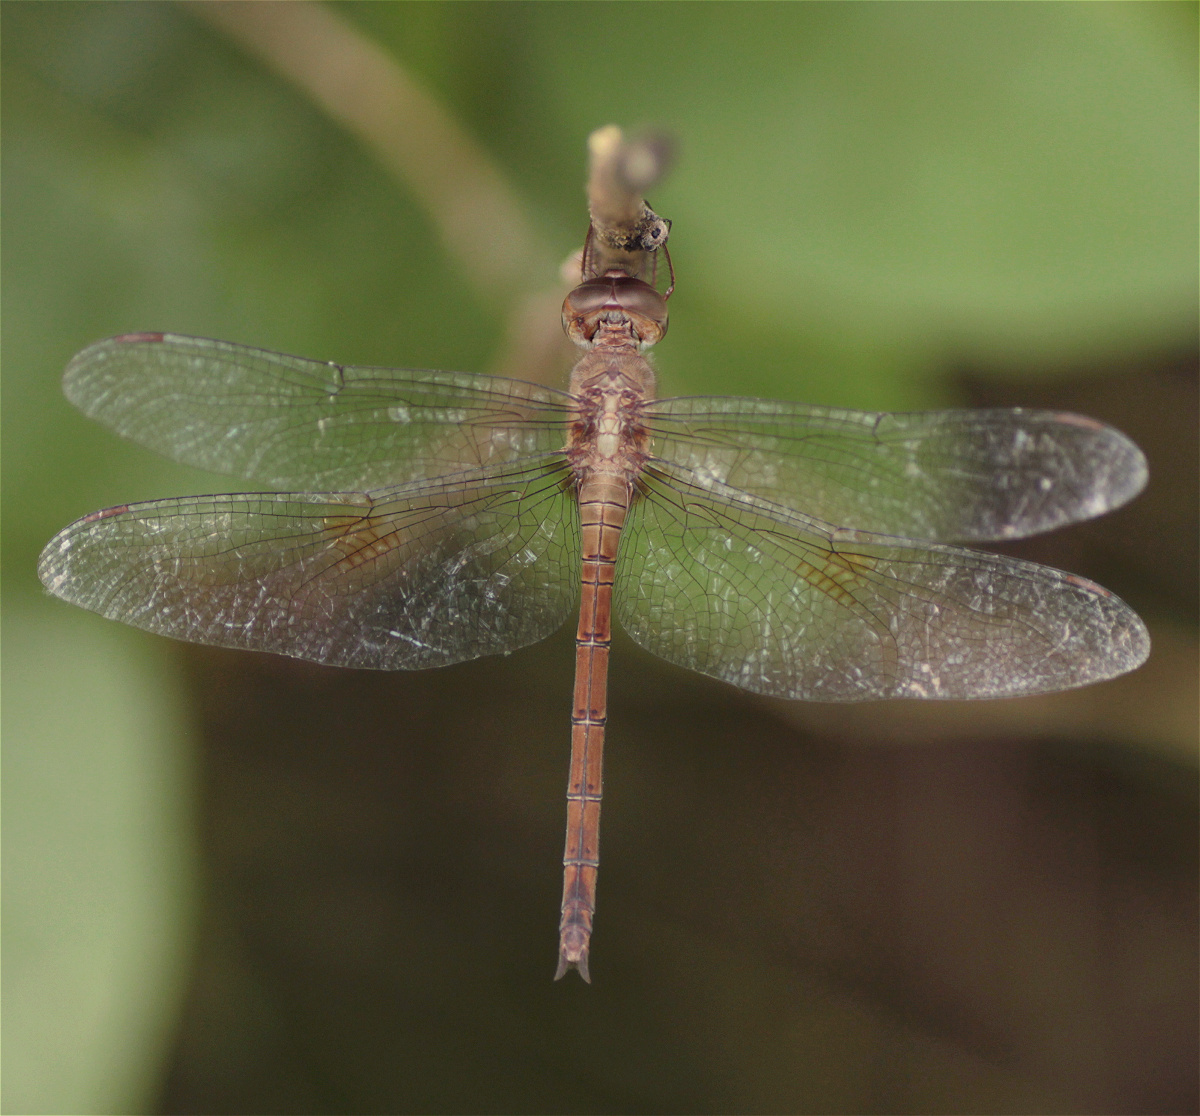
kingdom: Animalia
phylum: Arthropoda
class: Insecta
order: Odonata
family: Libellulidae
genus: Tholymis
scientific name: Tholymis citrina
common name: Evening skimmer
